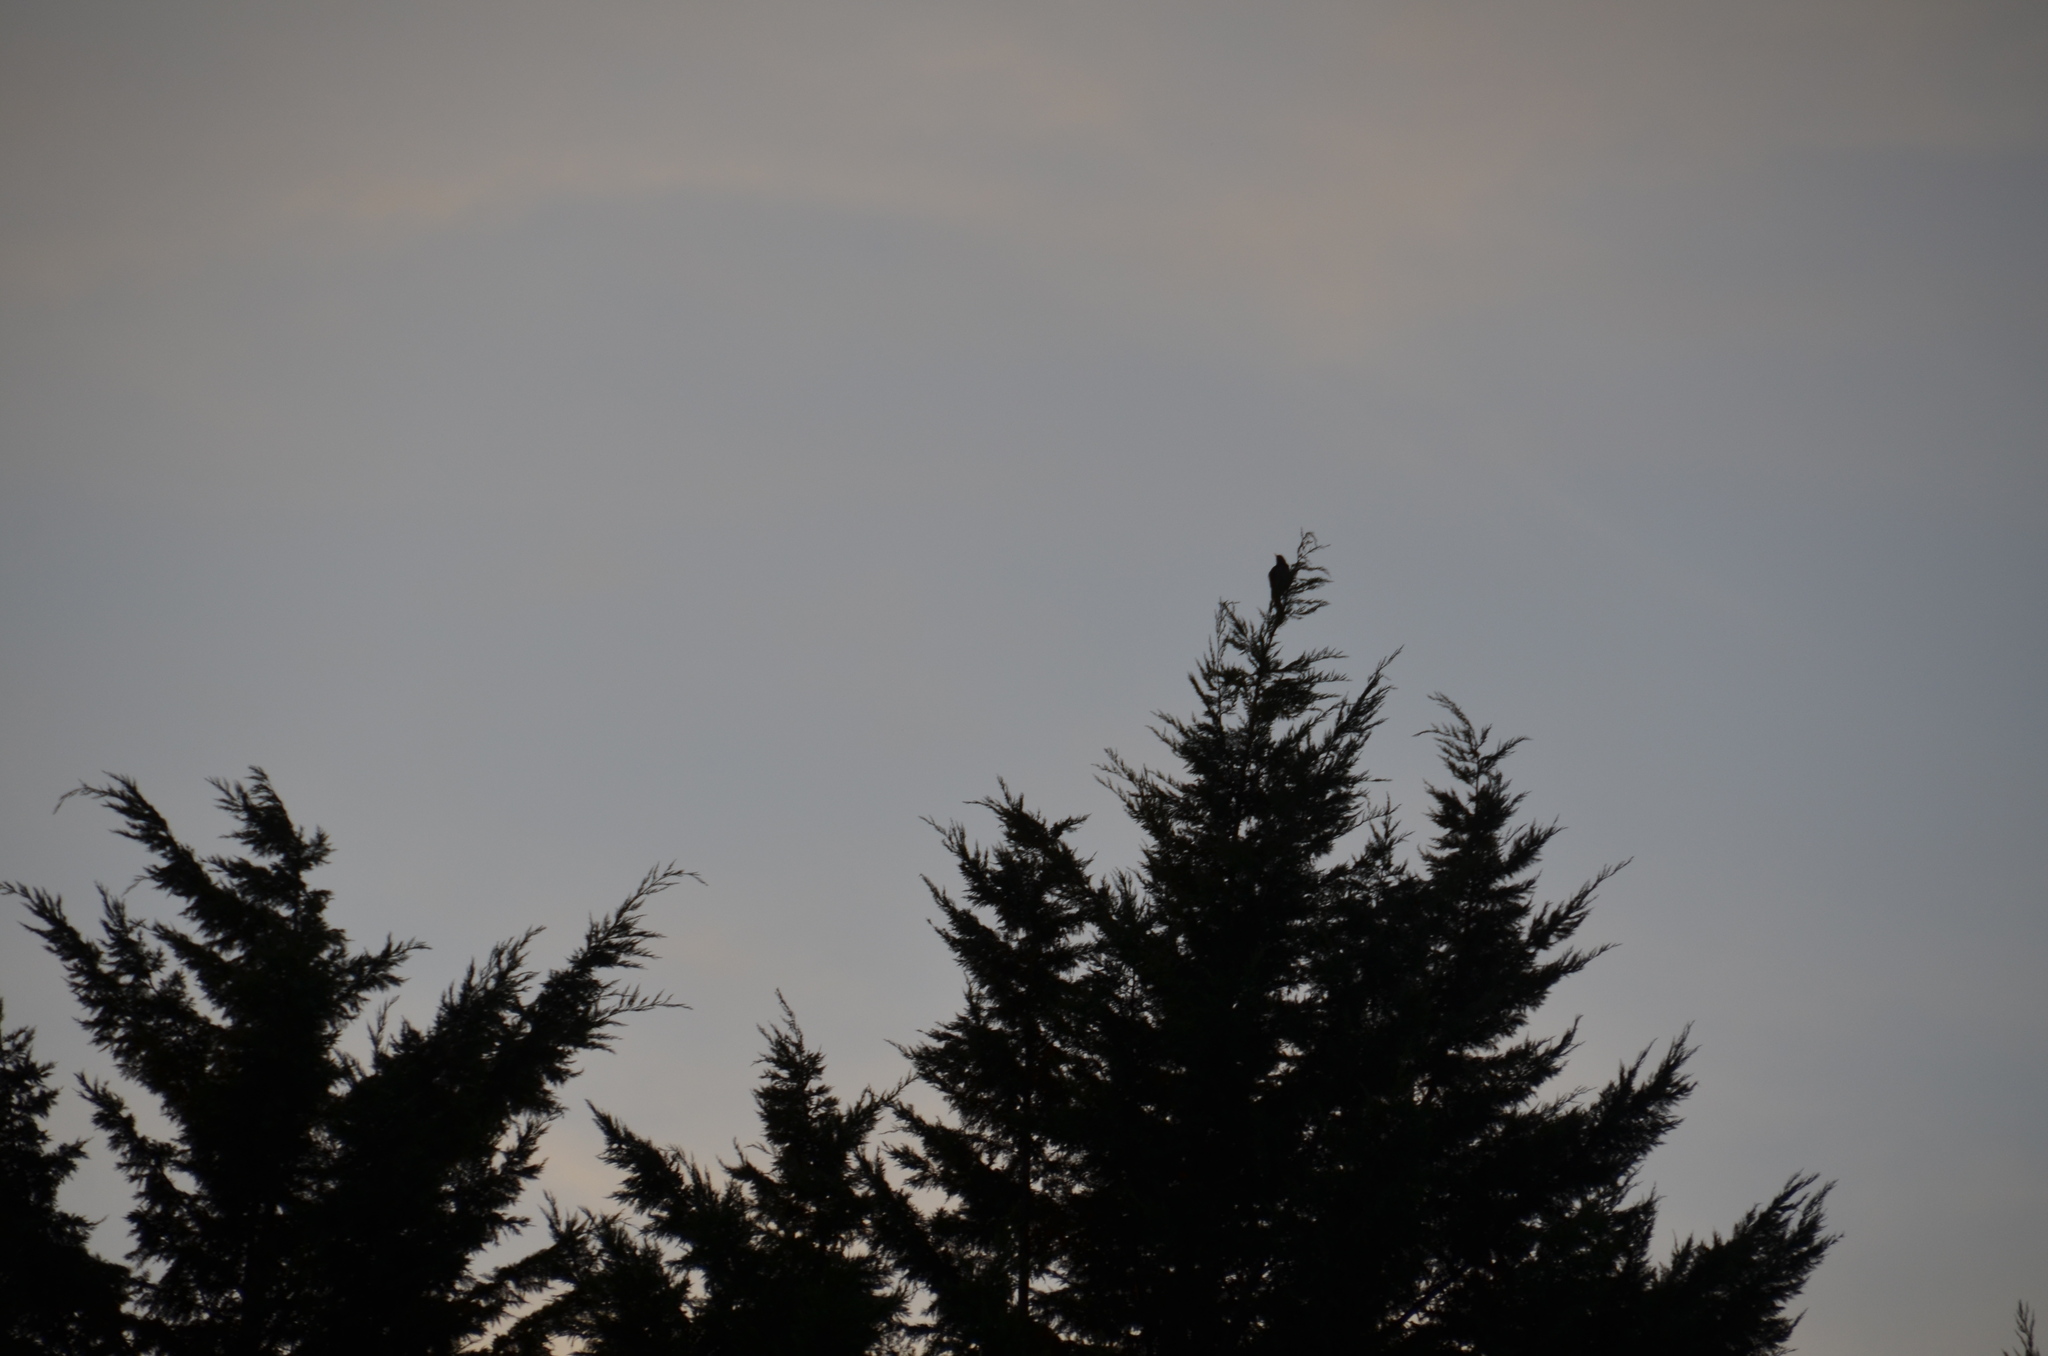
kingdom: Animalia
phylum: Chordata
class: Aves
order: Passeriformes
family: Turdidae
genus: Turdus
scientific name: Turdus migratorius
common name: American robin
